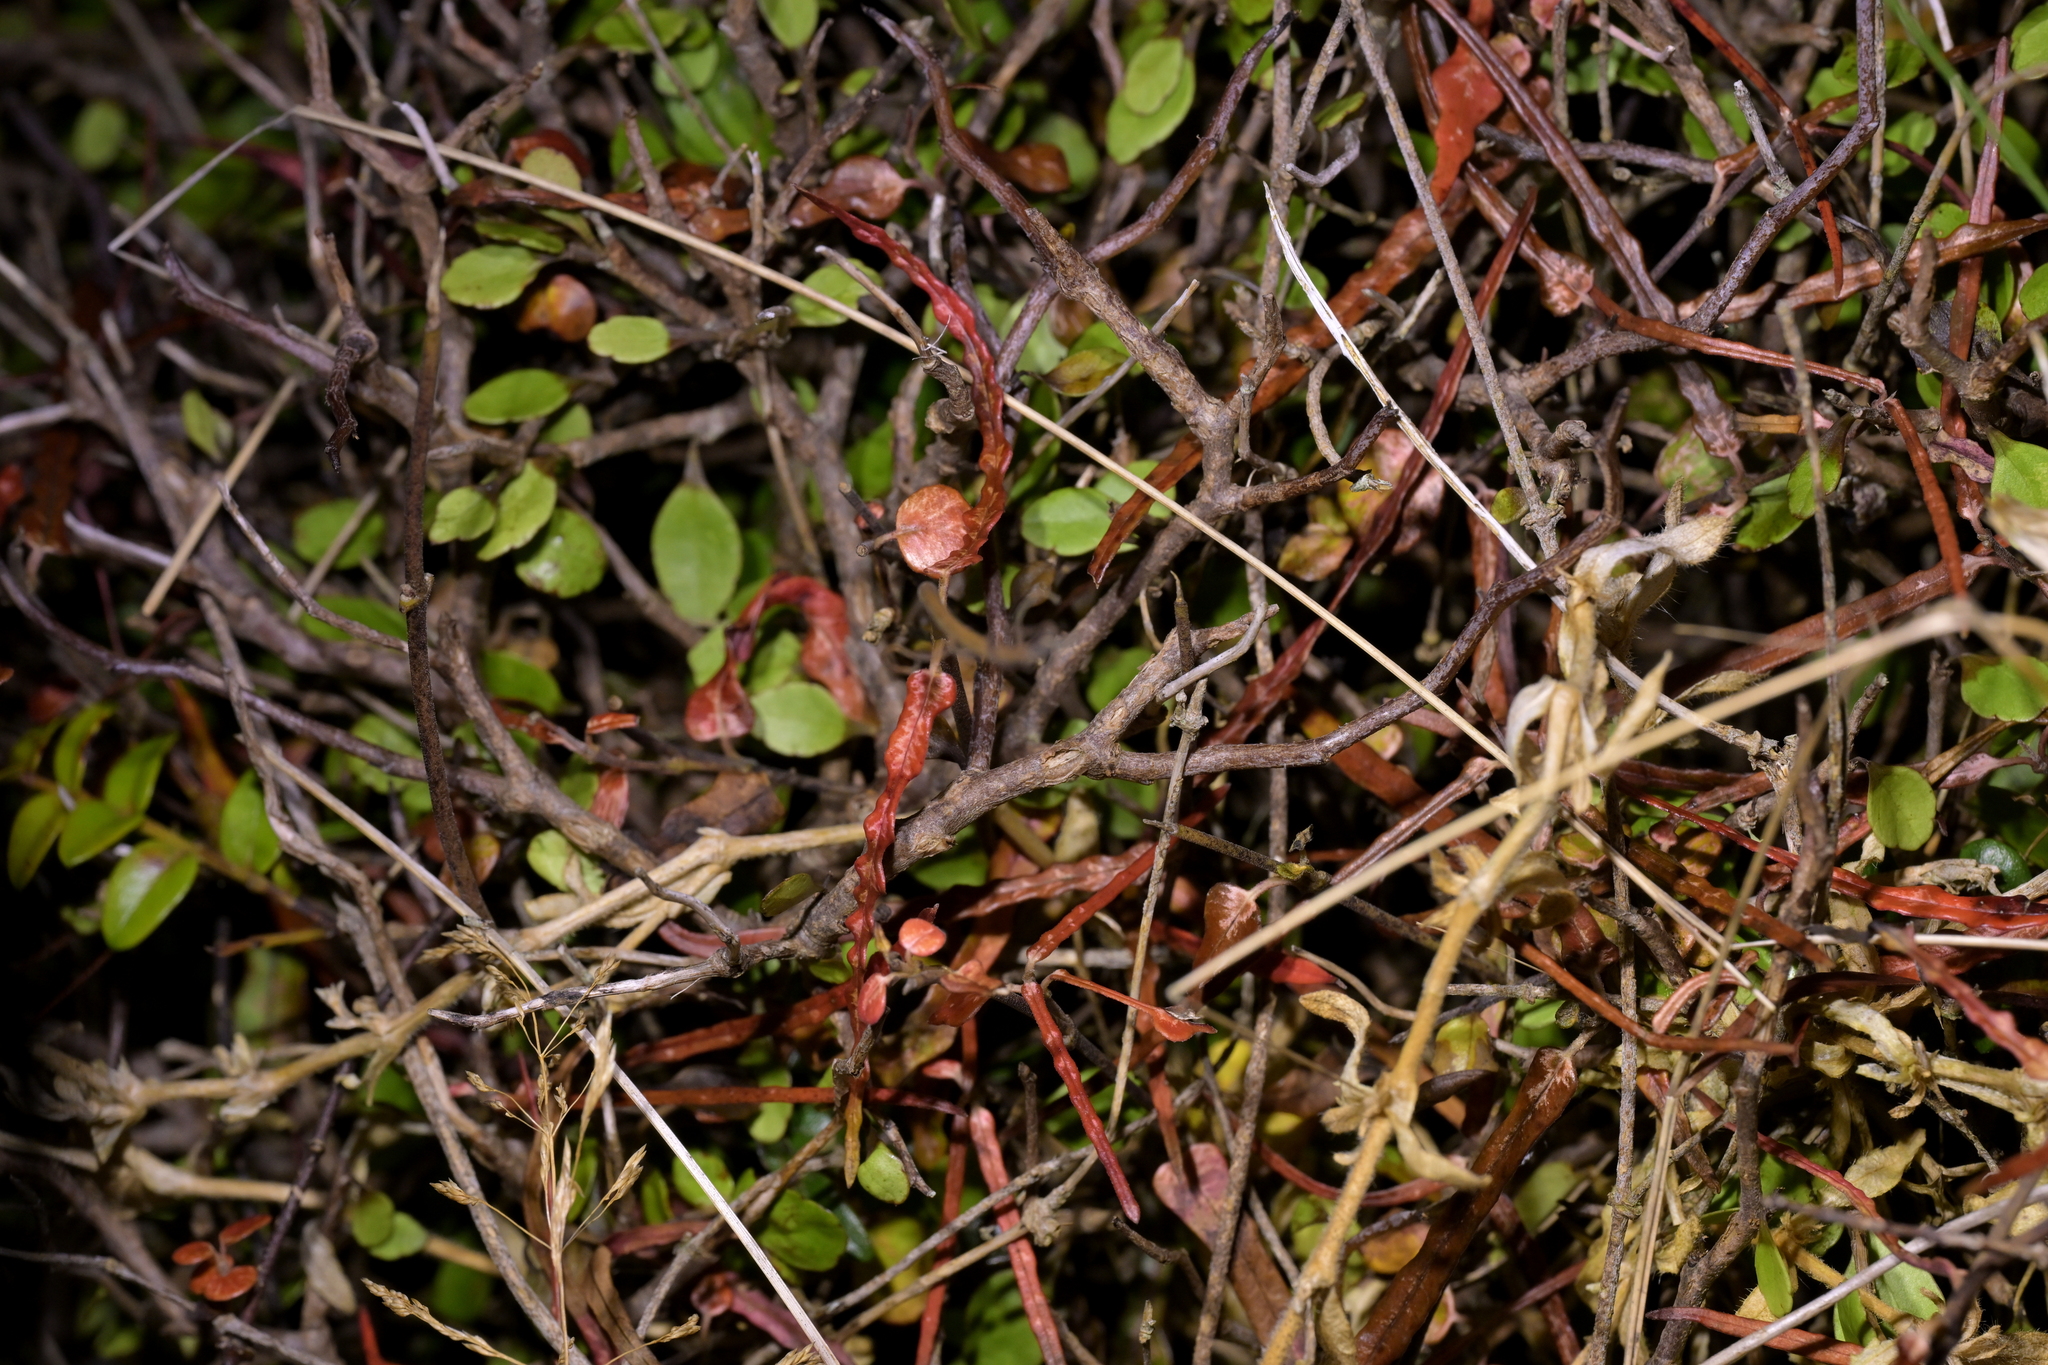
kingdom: Plantae
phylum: Tracheophyta
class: Magnoliopsida
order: Oxalidales
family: Elaeocarpaceae
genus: Elaeocarpus
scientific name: Elaeocarpus hookerianus
